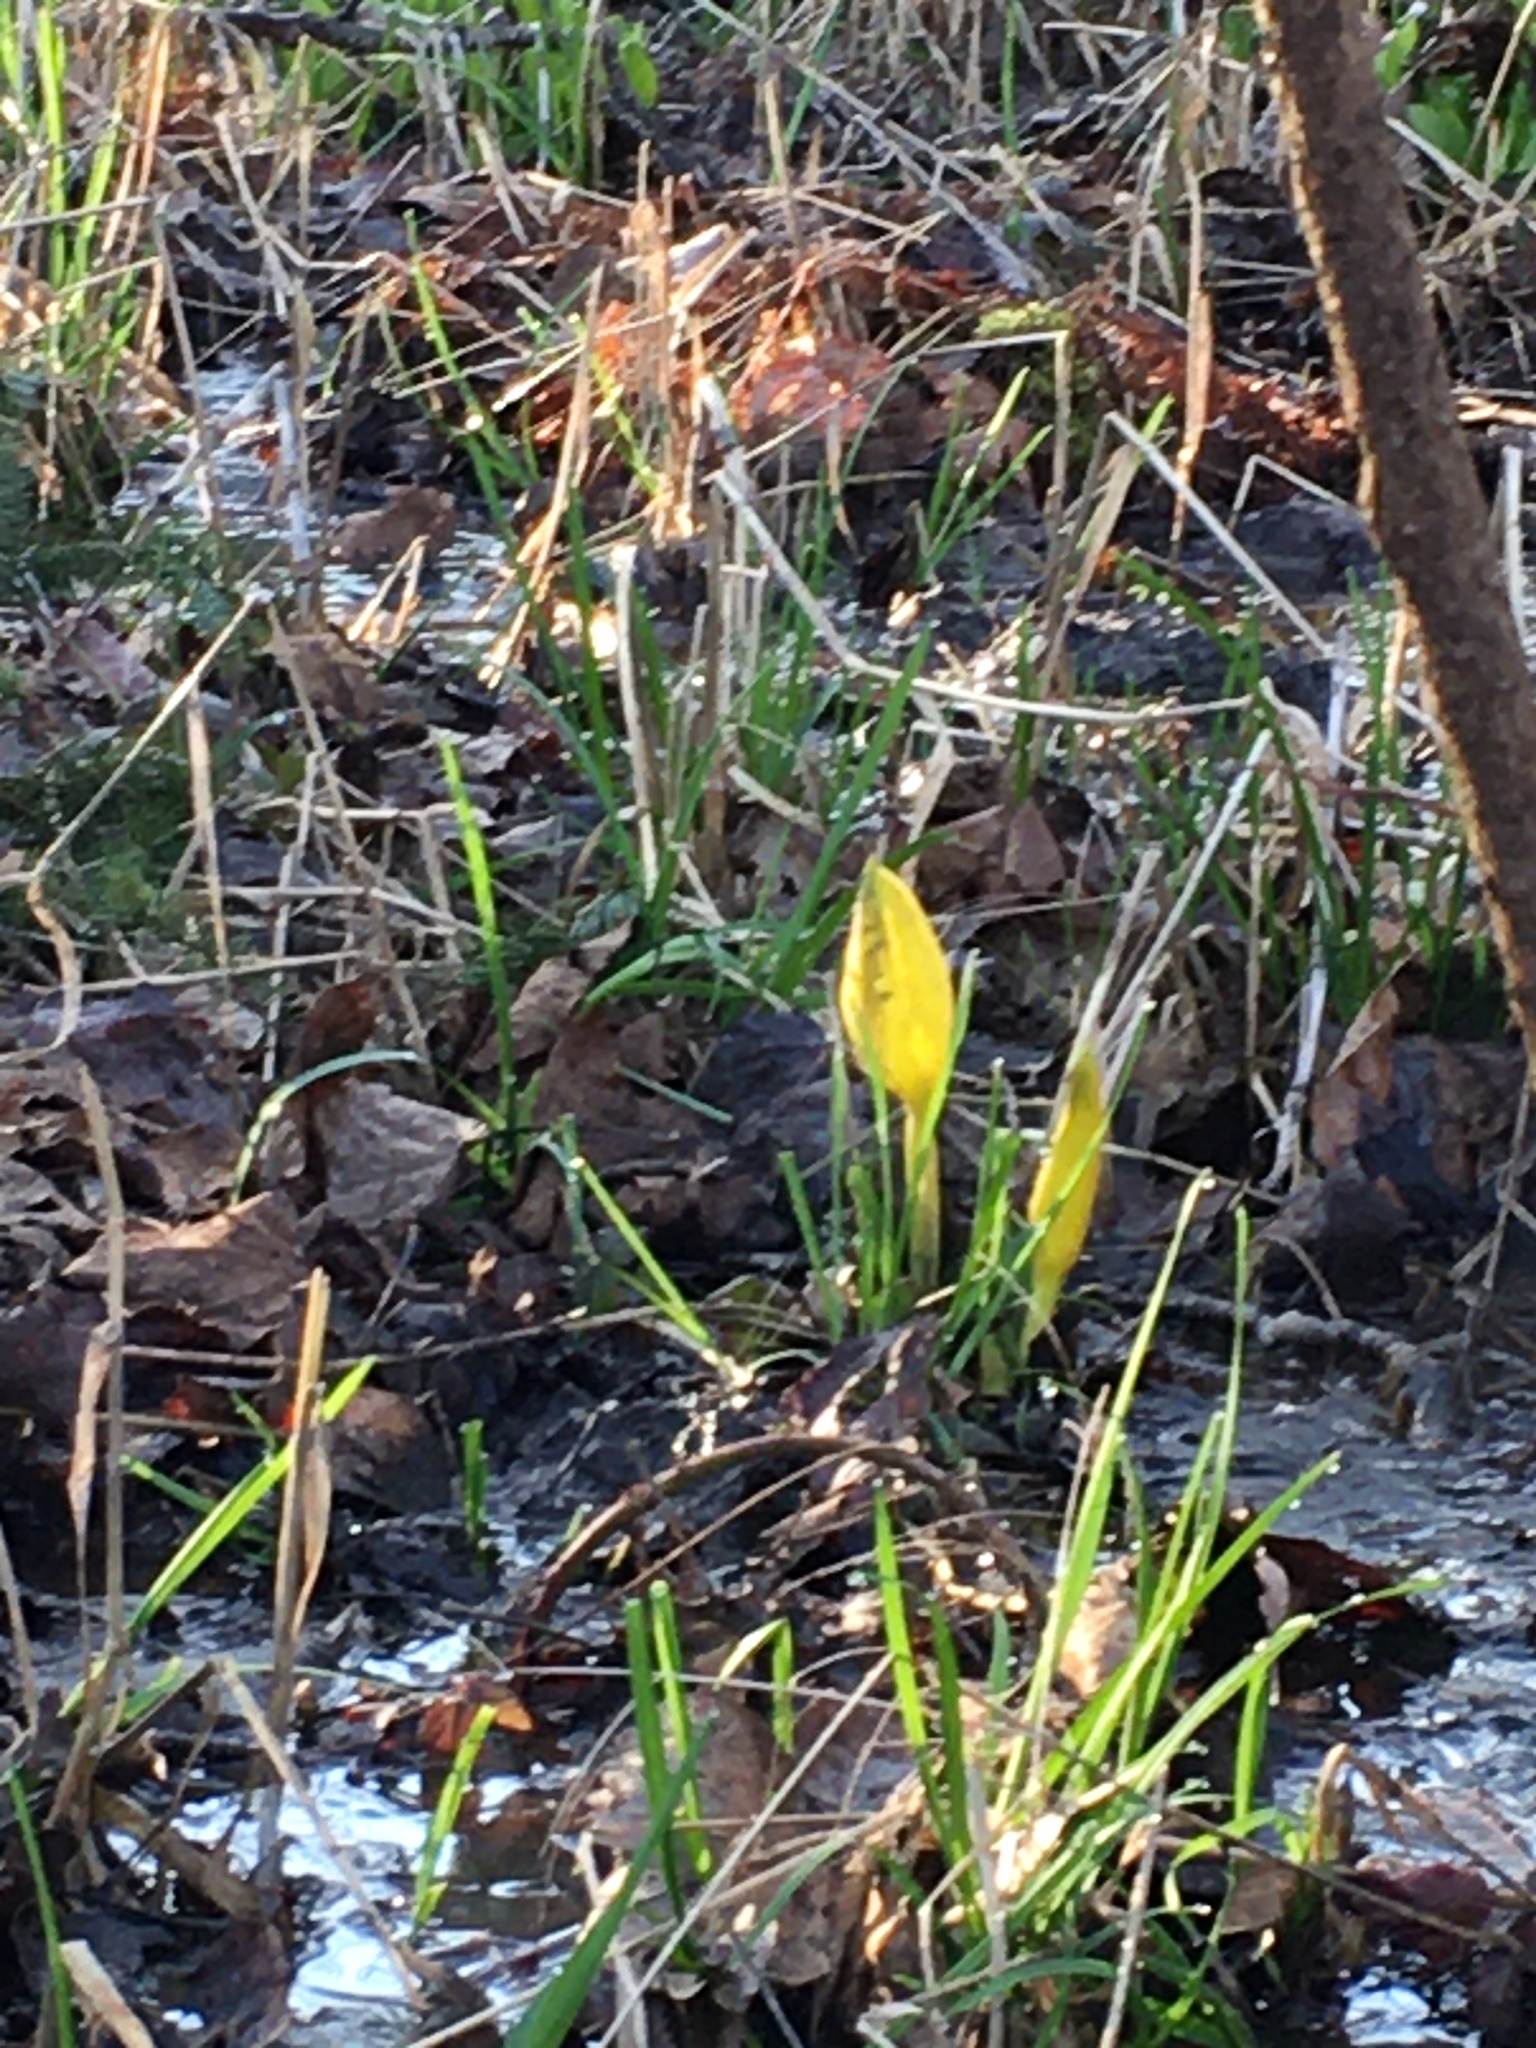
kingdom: Plantae
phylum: Tracheophyta
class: Liliopsida
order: Alismatales
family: Araceae
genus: Lysichiton
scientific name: Lysichiton americanus
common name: American skunk cabbage
